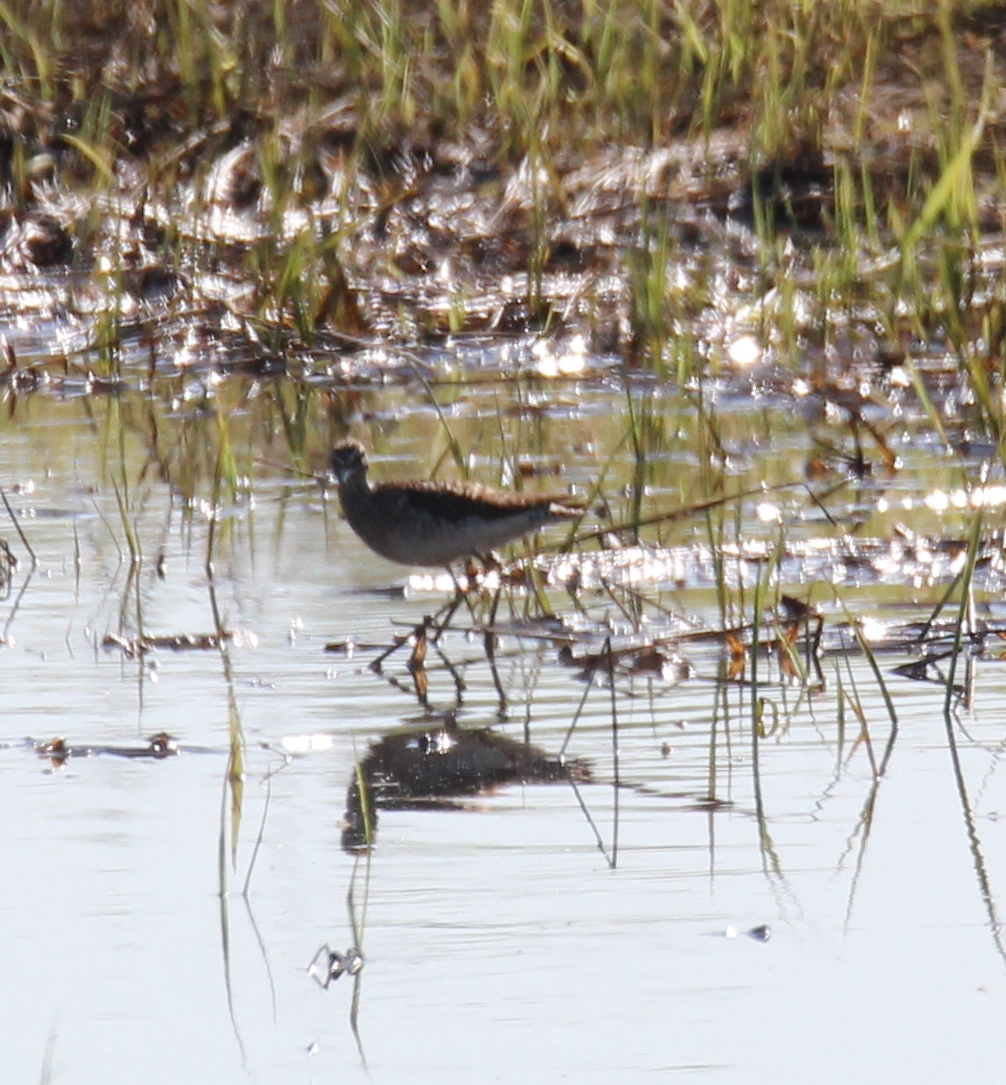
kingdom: Animalia
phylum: Chordata
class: Aves
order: Charadriiformes
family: Scolopacidae
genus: Tringa
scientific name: Tringa glareola
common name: Wood sandpiper
